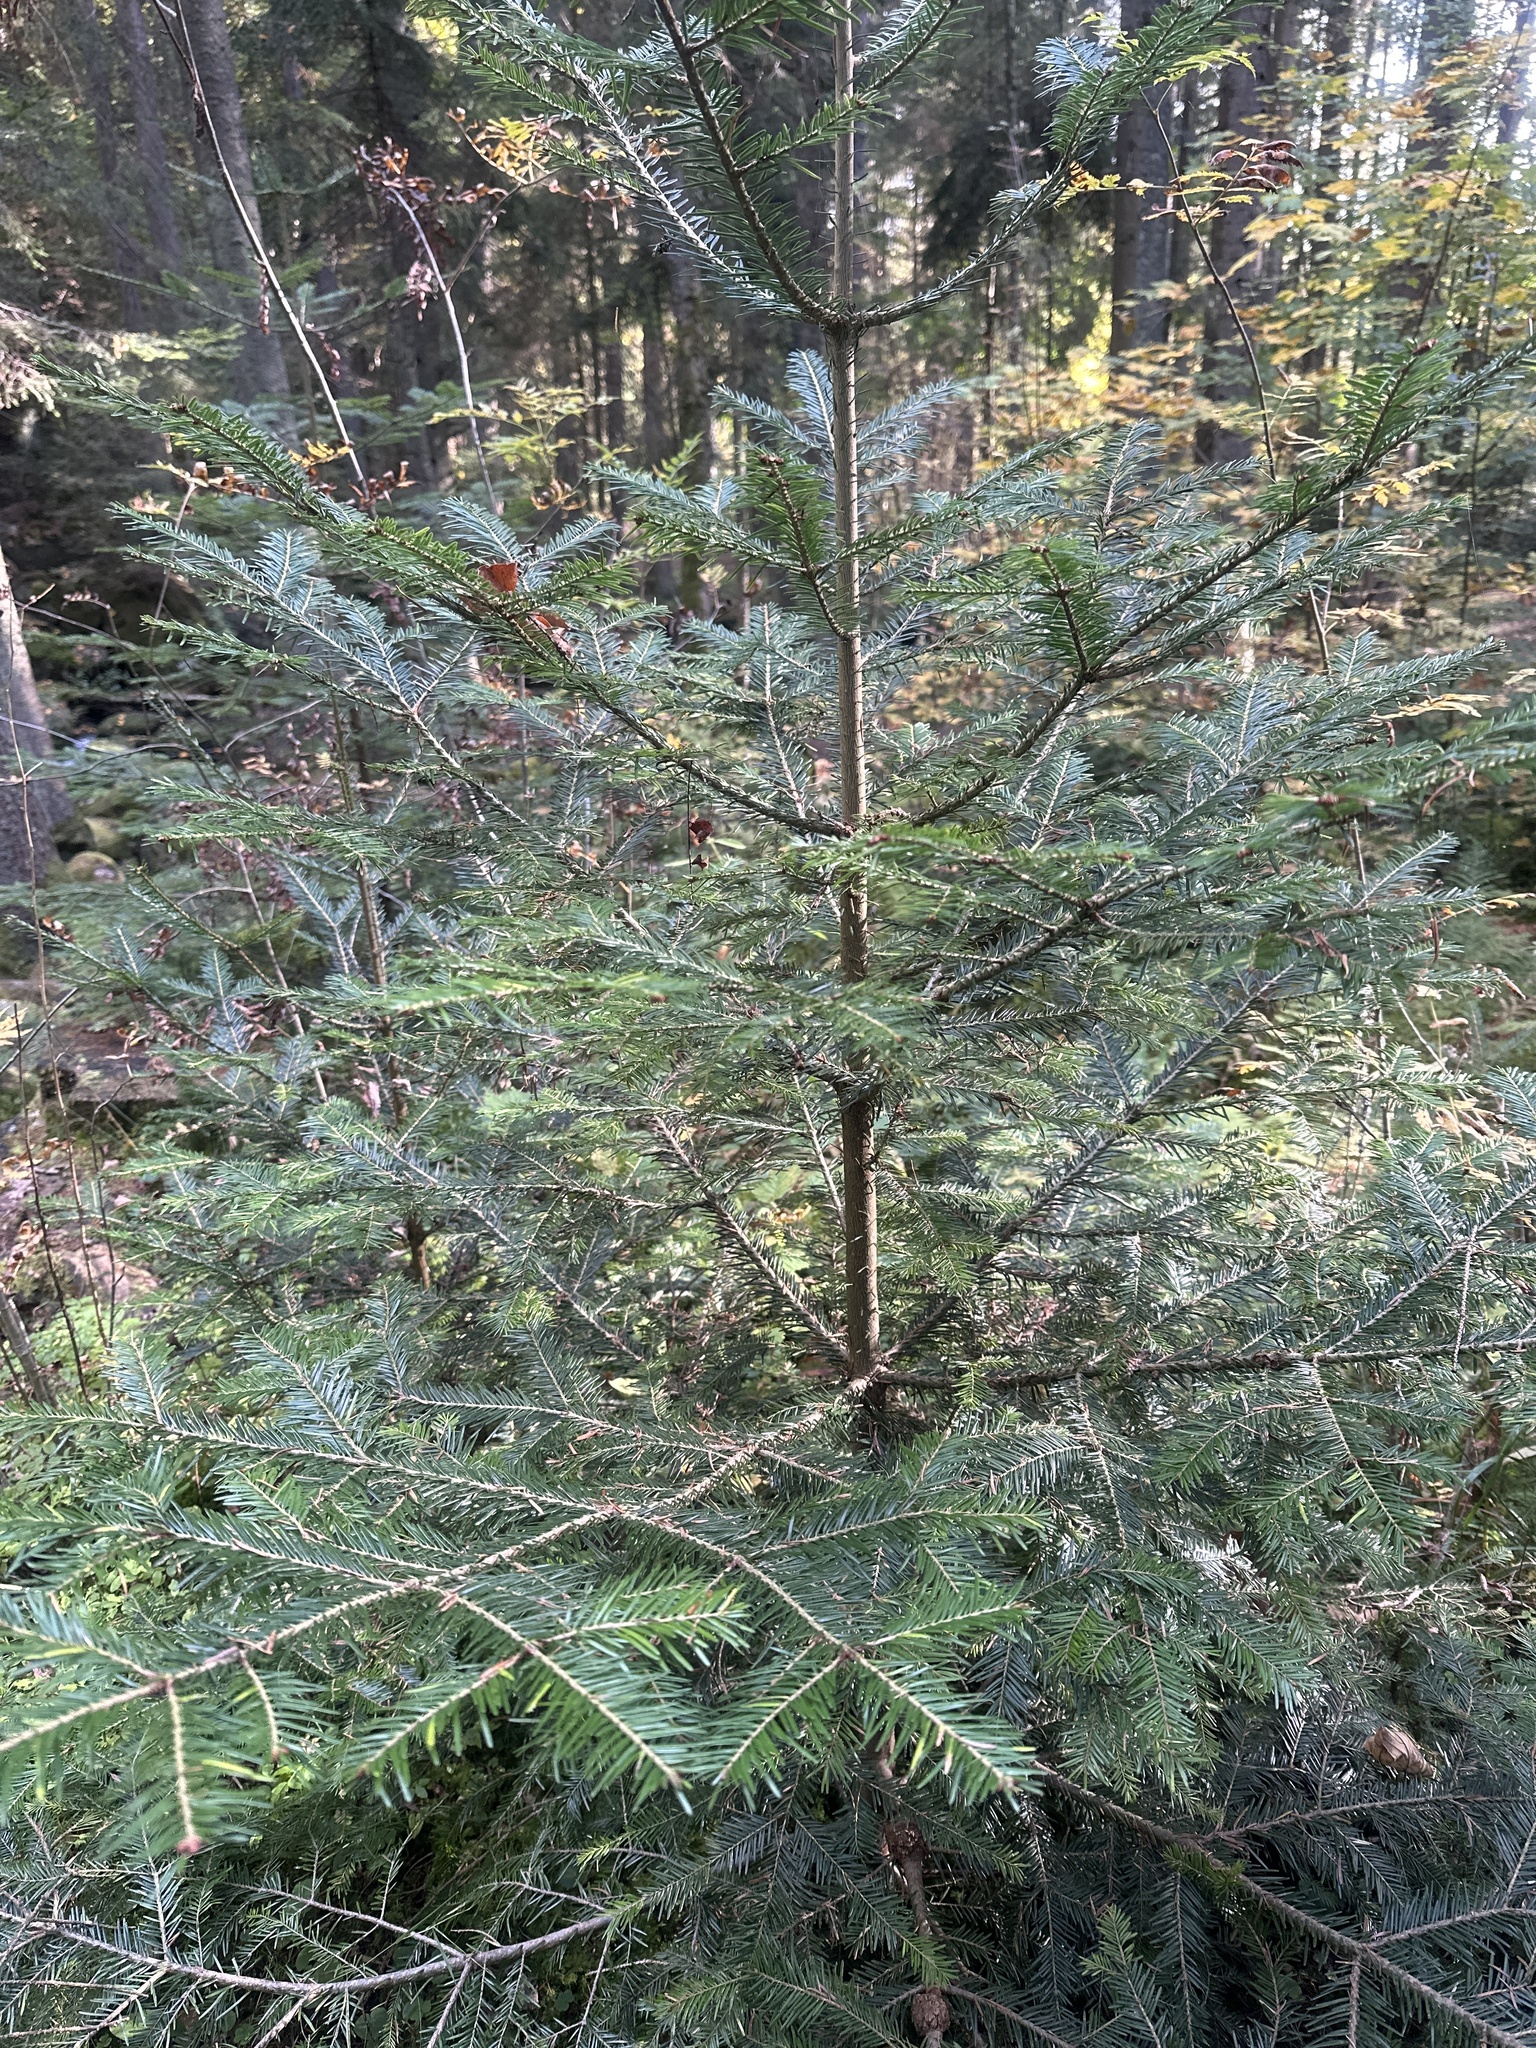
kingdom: Plantae
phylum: Tracheophyta
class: Pinopsida
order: Pinales
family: Pinaceae
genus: Abies
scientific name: Abies alba
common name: Silver fir
